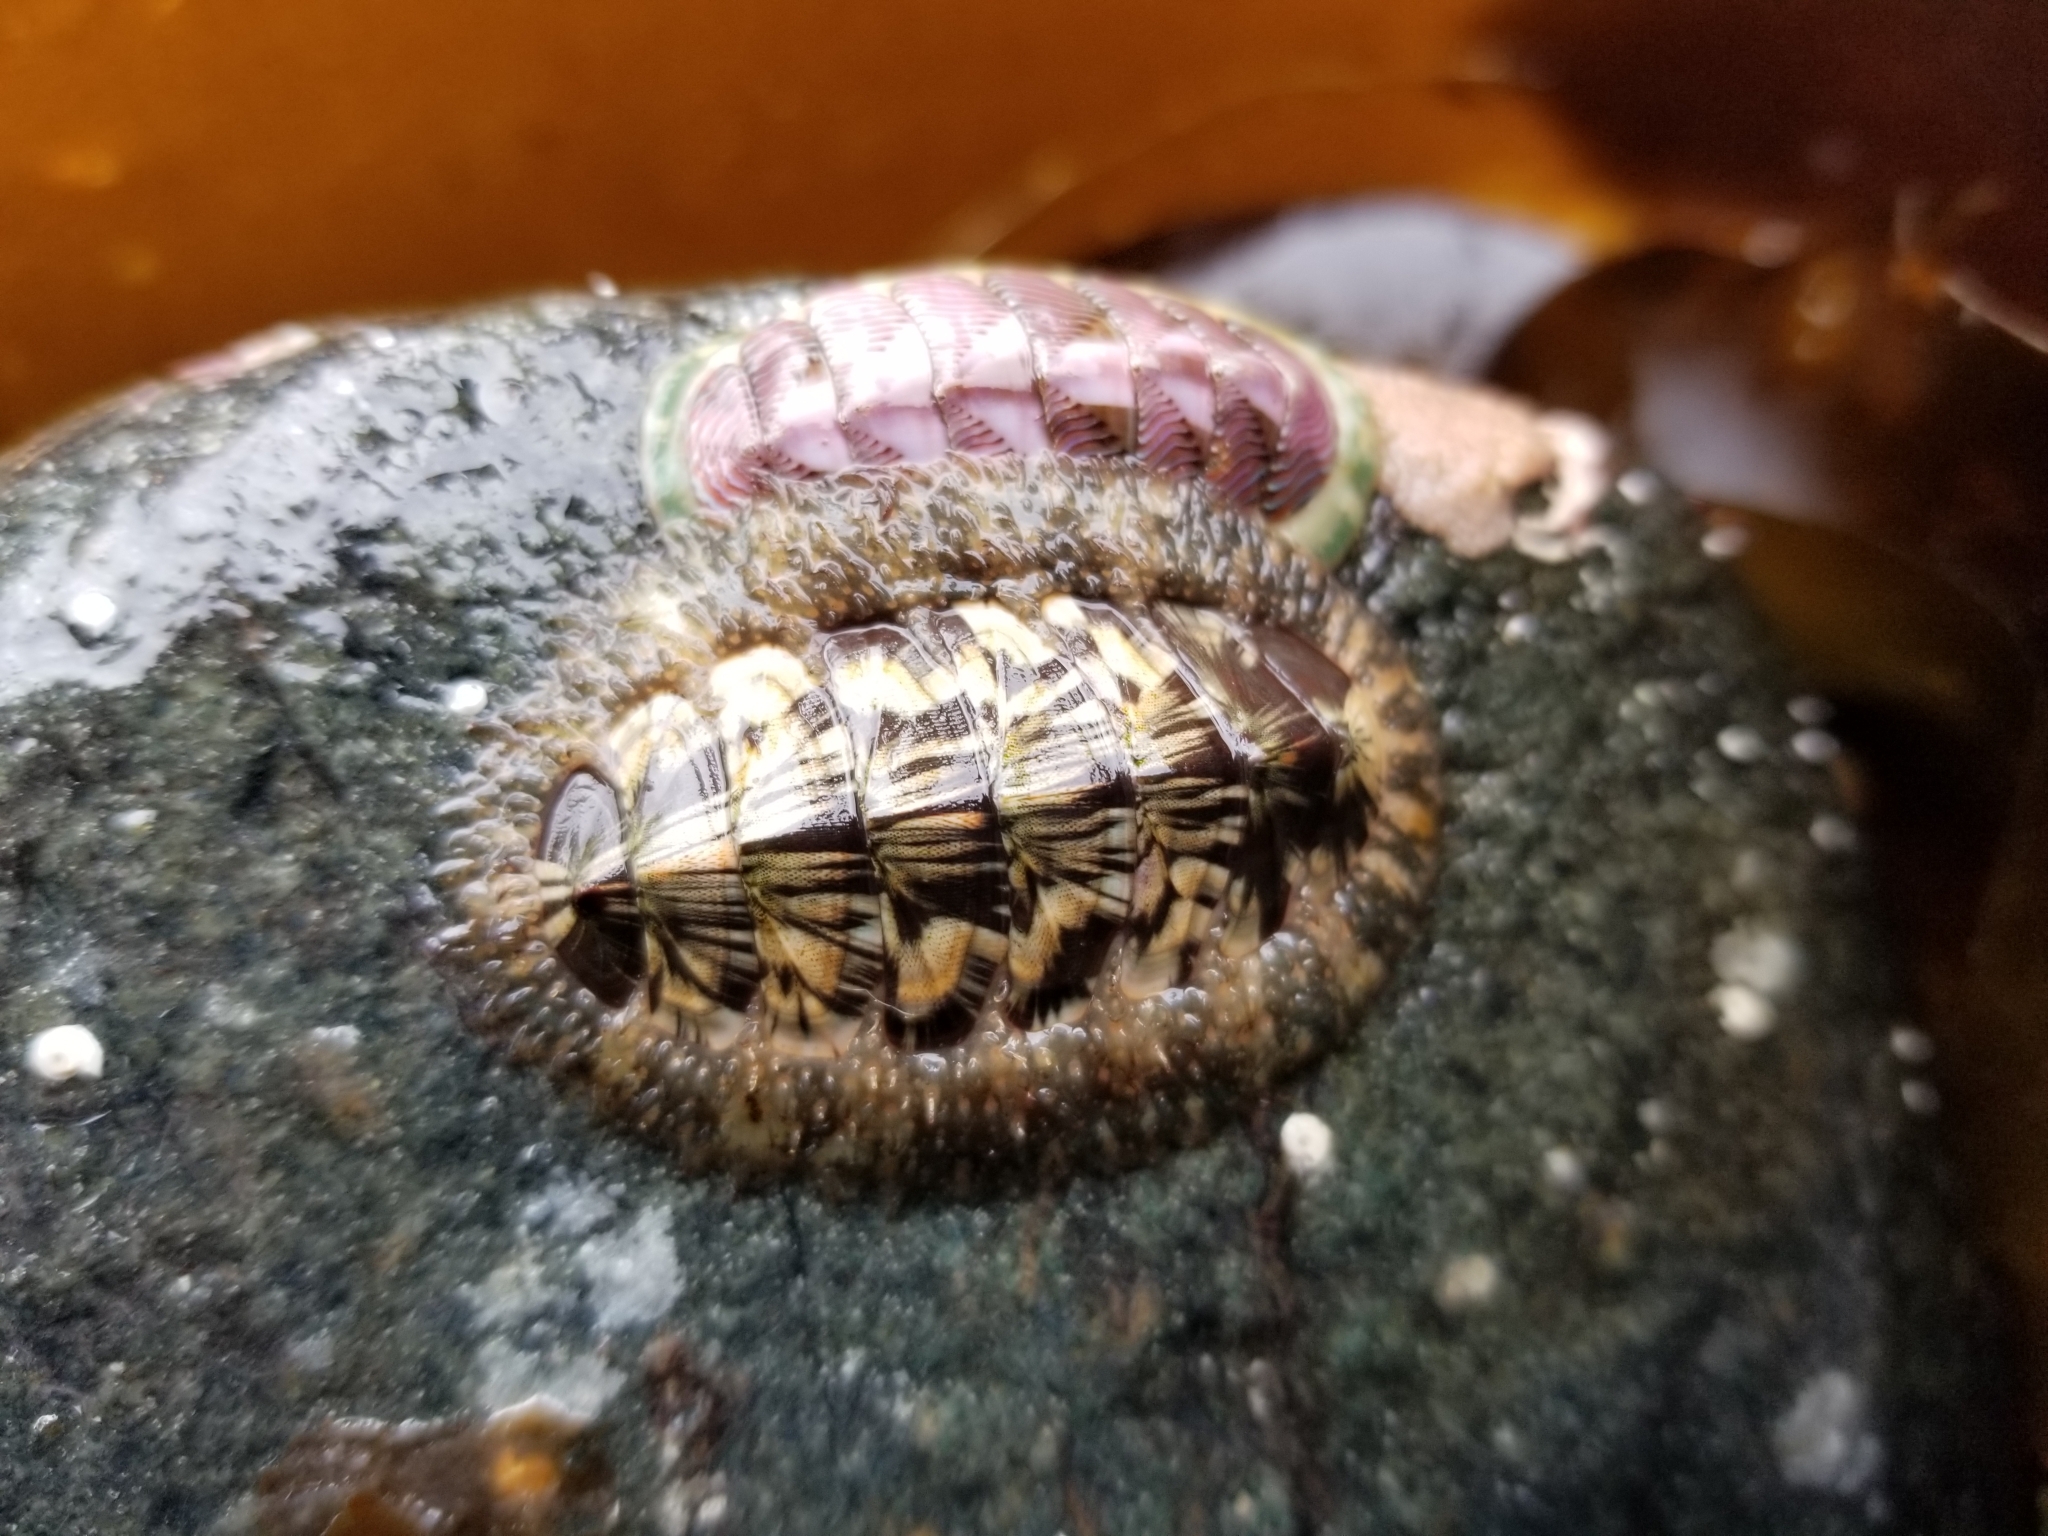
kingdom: Animalia
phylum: Mollusca
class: Polyplacophora
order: Chitonida
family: Mopaliidae
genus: Mopalia
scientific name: Mopalia lignosa
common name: Woody chiton
